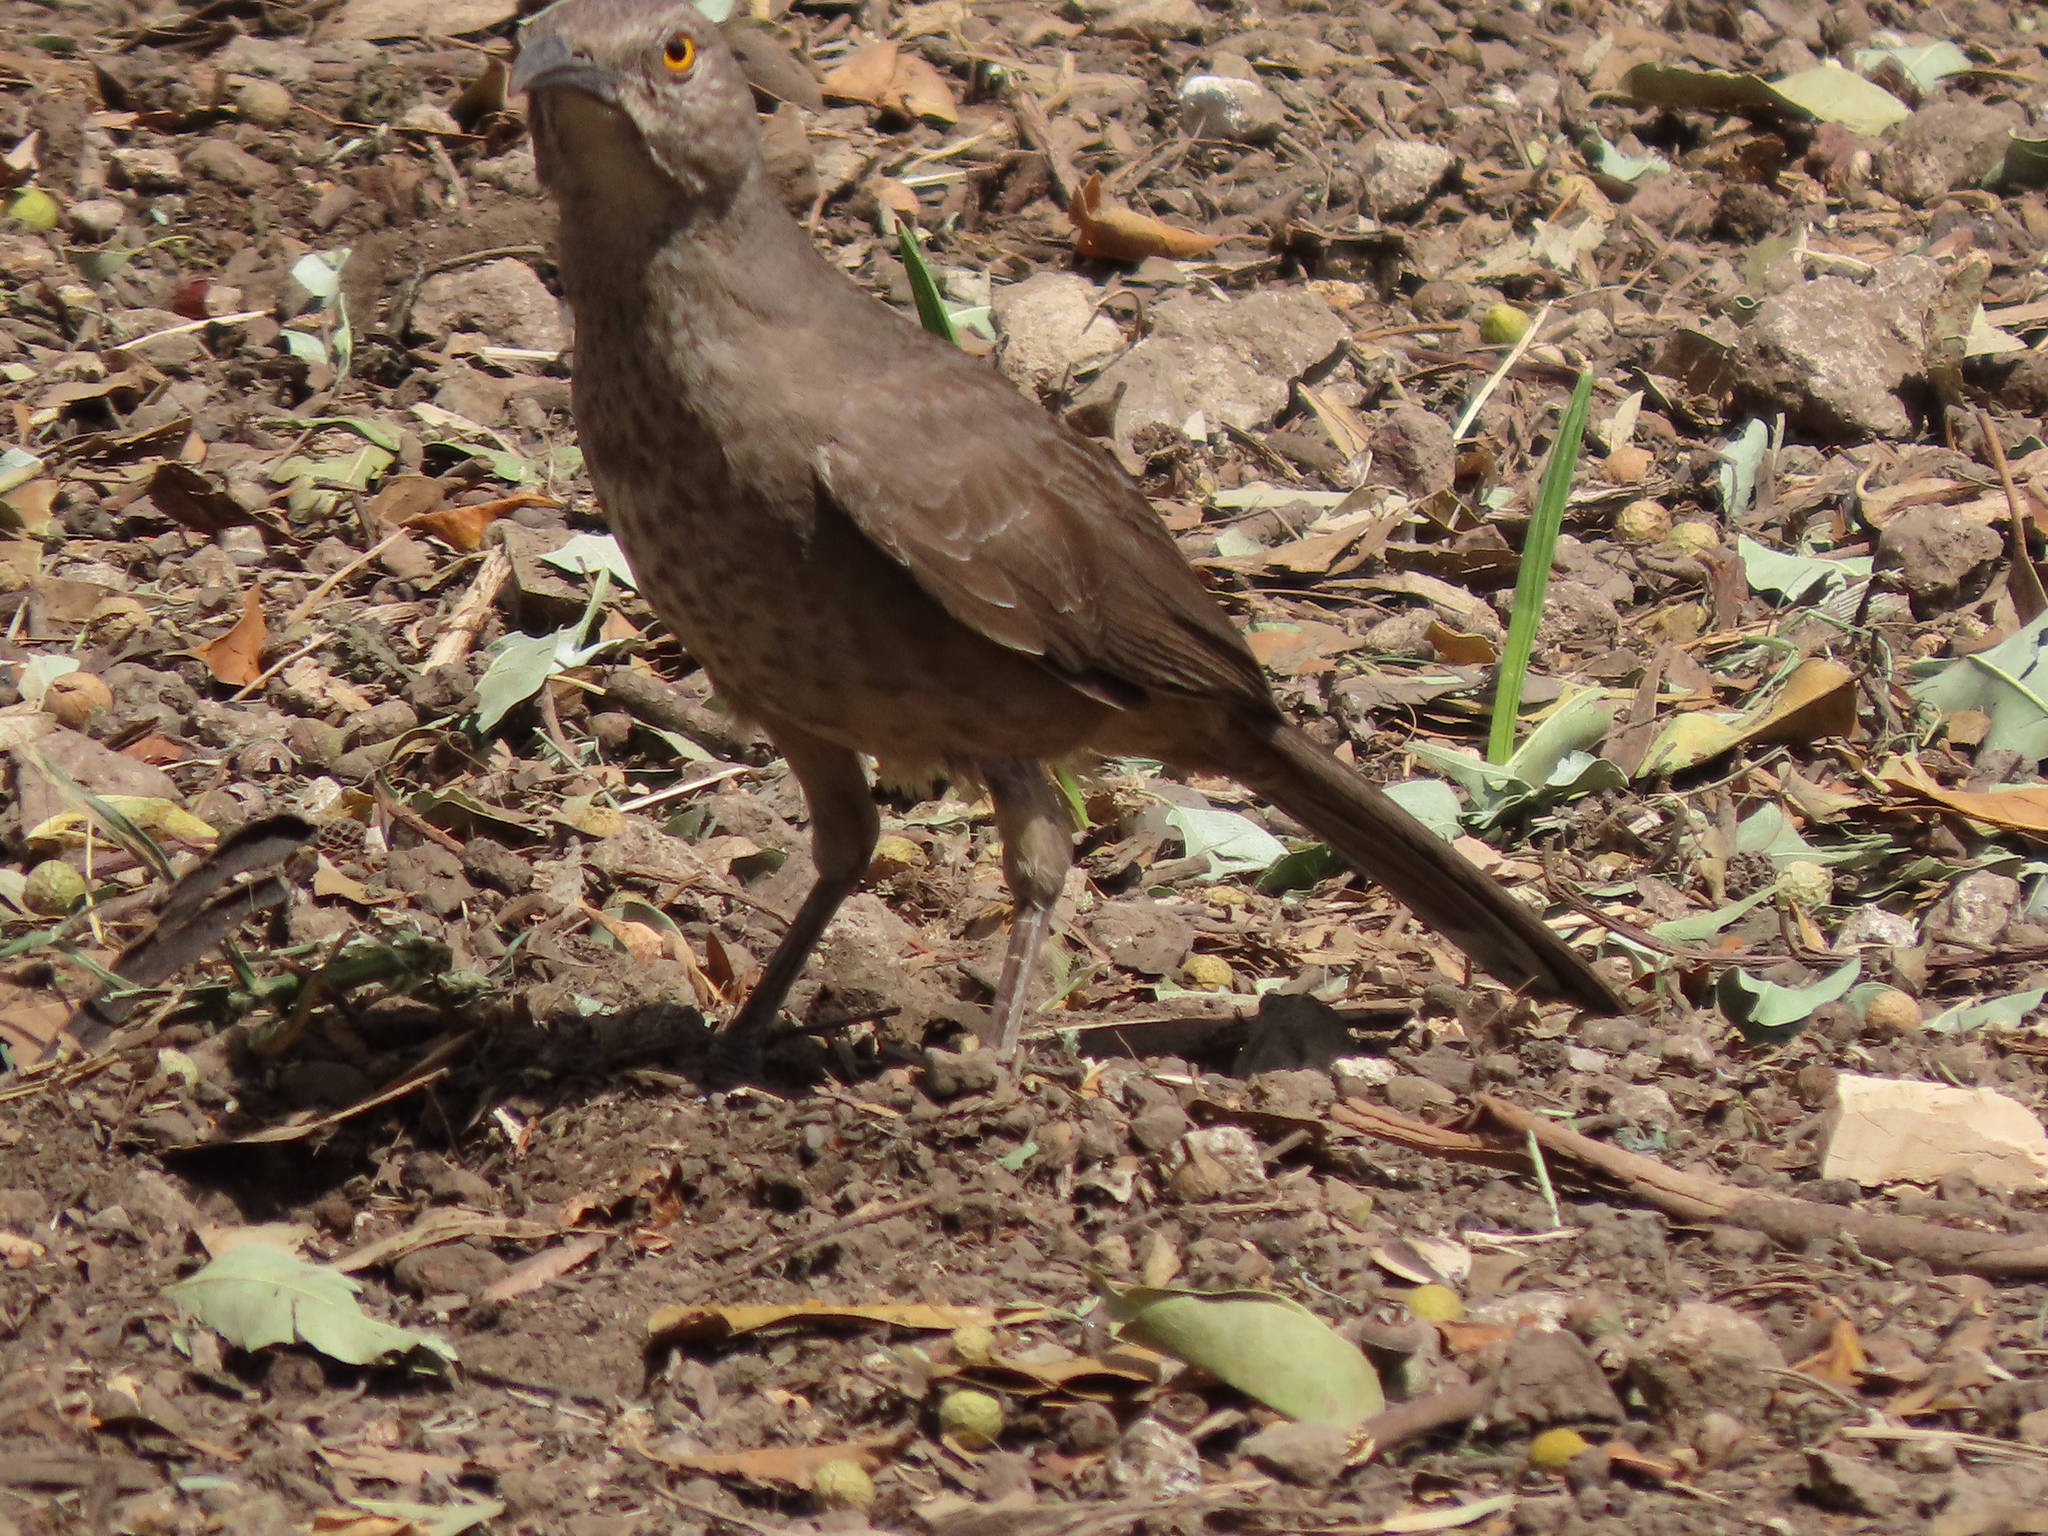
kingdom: Animalia
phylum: Chordata
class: Aves
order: Passeriformes
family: Mimidae
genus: Toxostoma
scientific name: Toxostoma curvirostre
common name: Curve-billed thrasher
